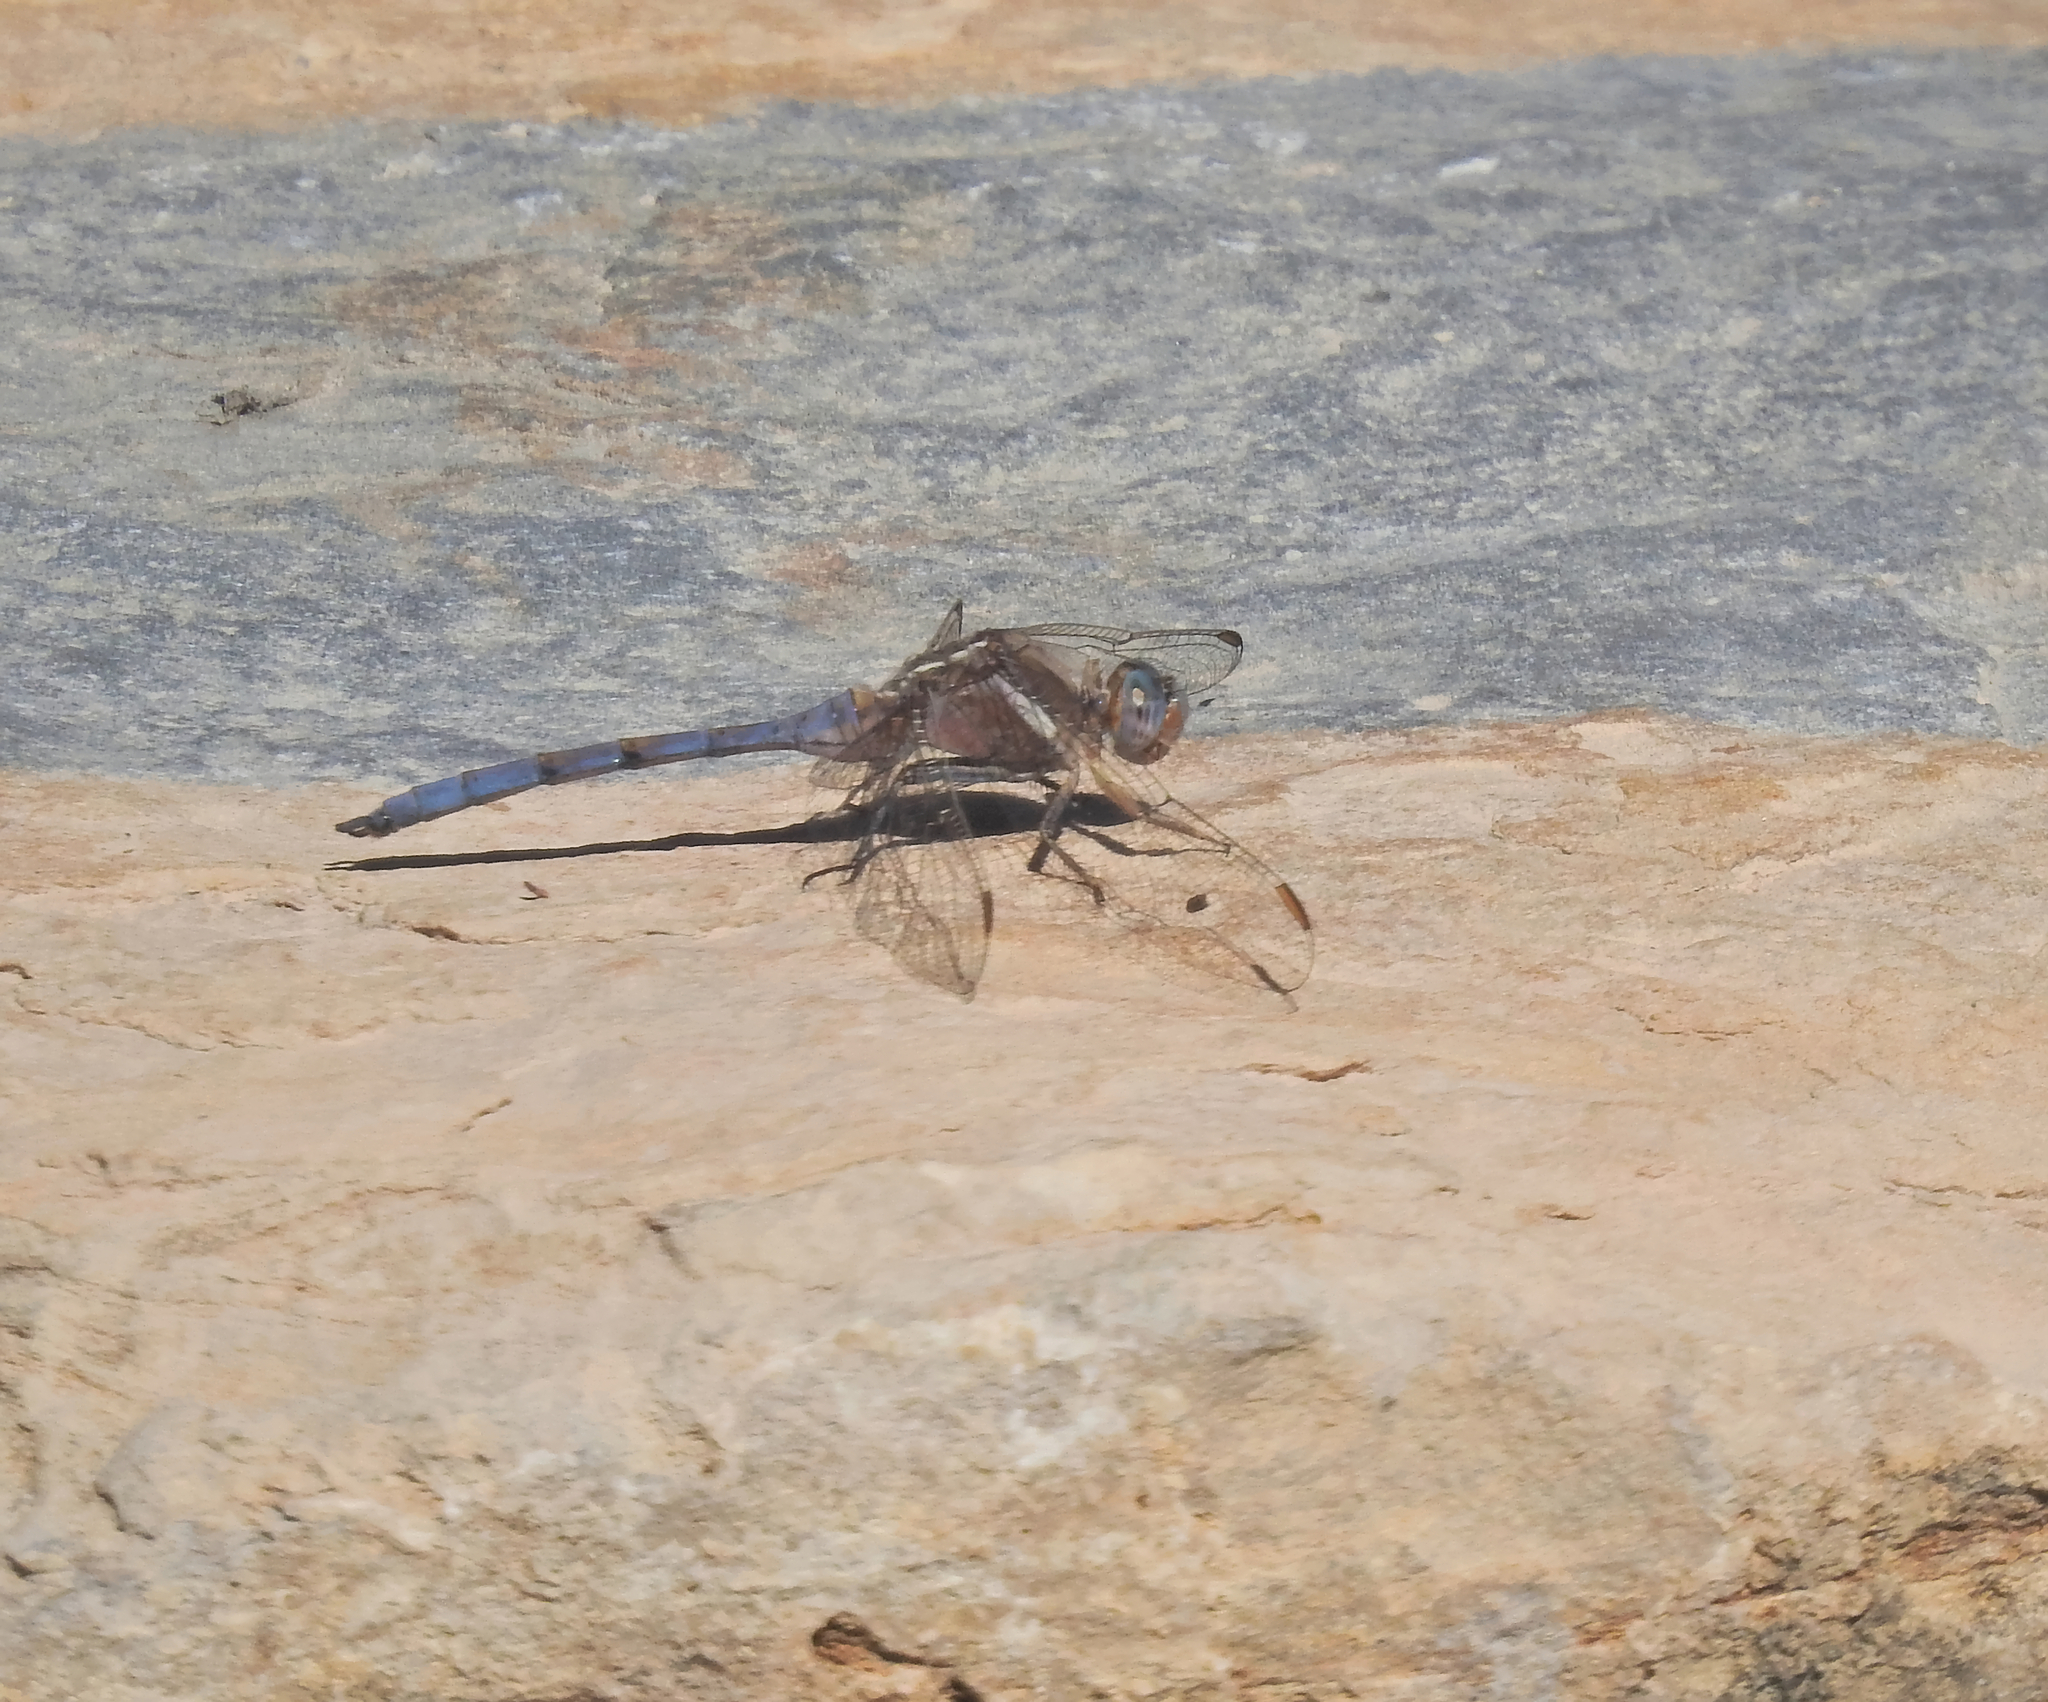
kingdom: Animalia
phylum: Arthropoda
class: Insecta
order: Odonata
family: Libellulidae
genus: Orthetrum
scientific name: Orthetrum chrysostigma
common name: Epaulet skimmer
